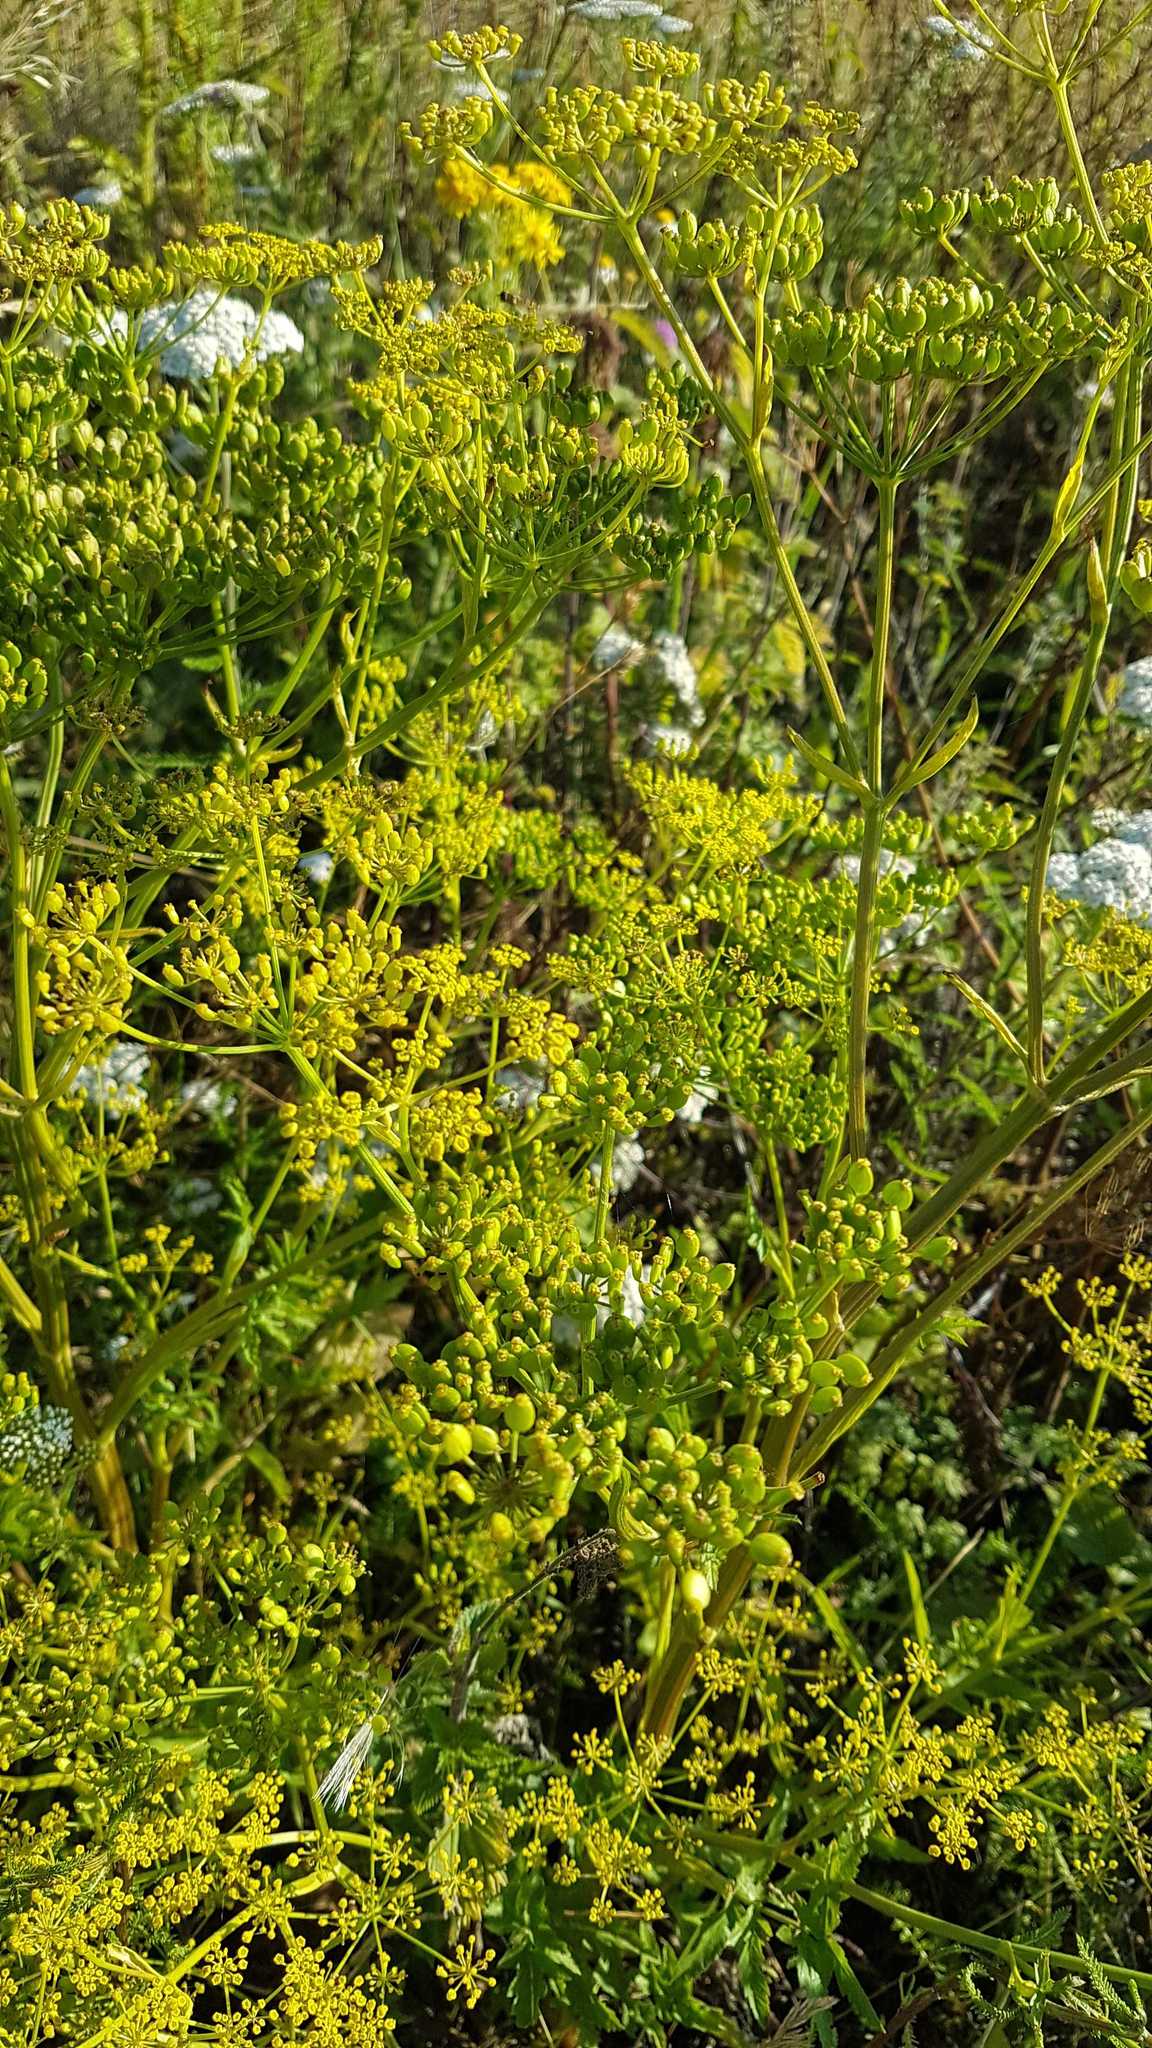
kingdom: Plantae
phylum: Tracheophyta
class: Magnoliopsida
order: Apiales
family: Apiaceae
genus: Pastinaca
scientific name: Pastinaca sativa
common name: Wild parsnip
